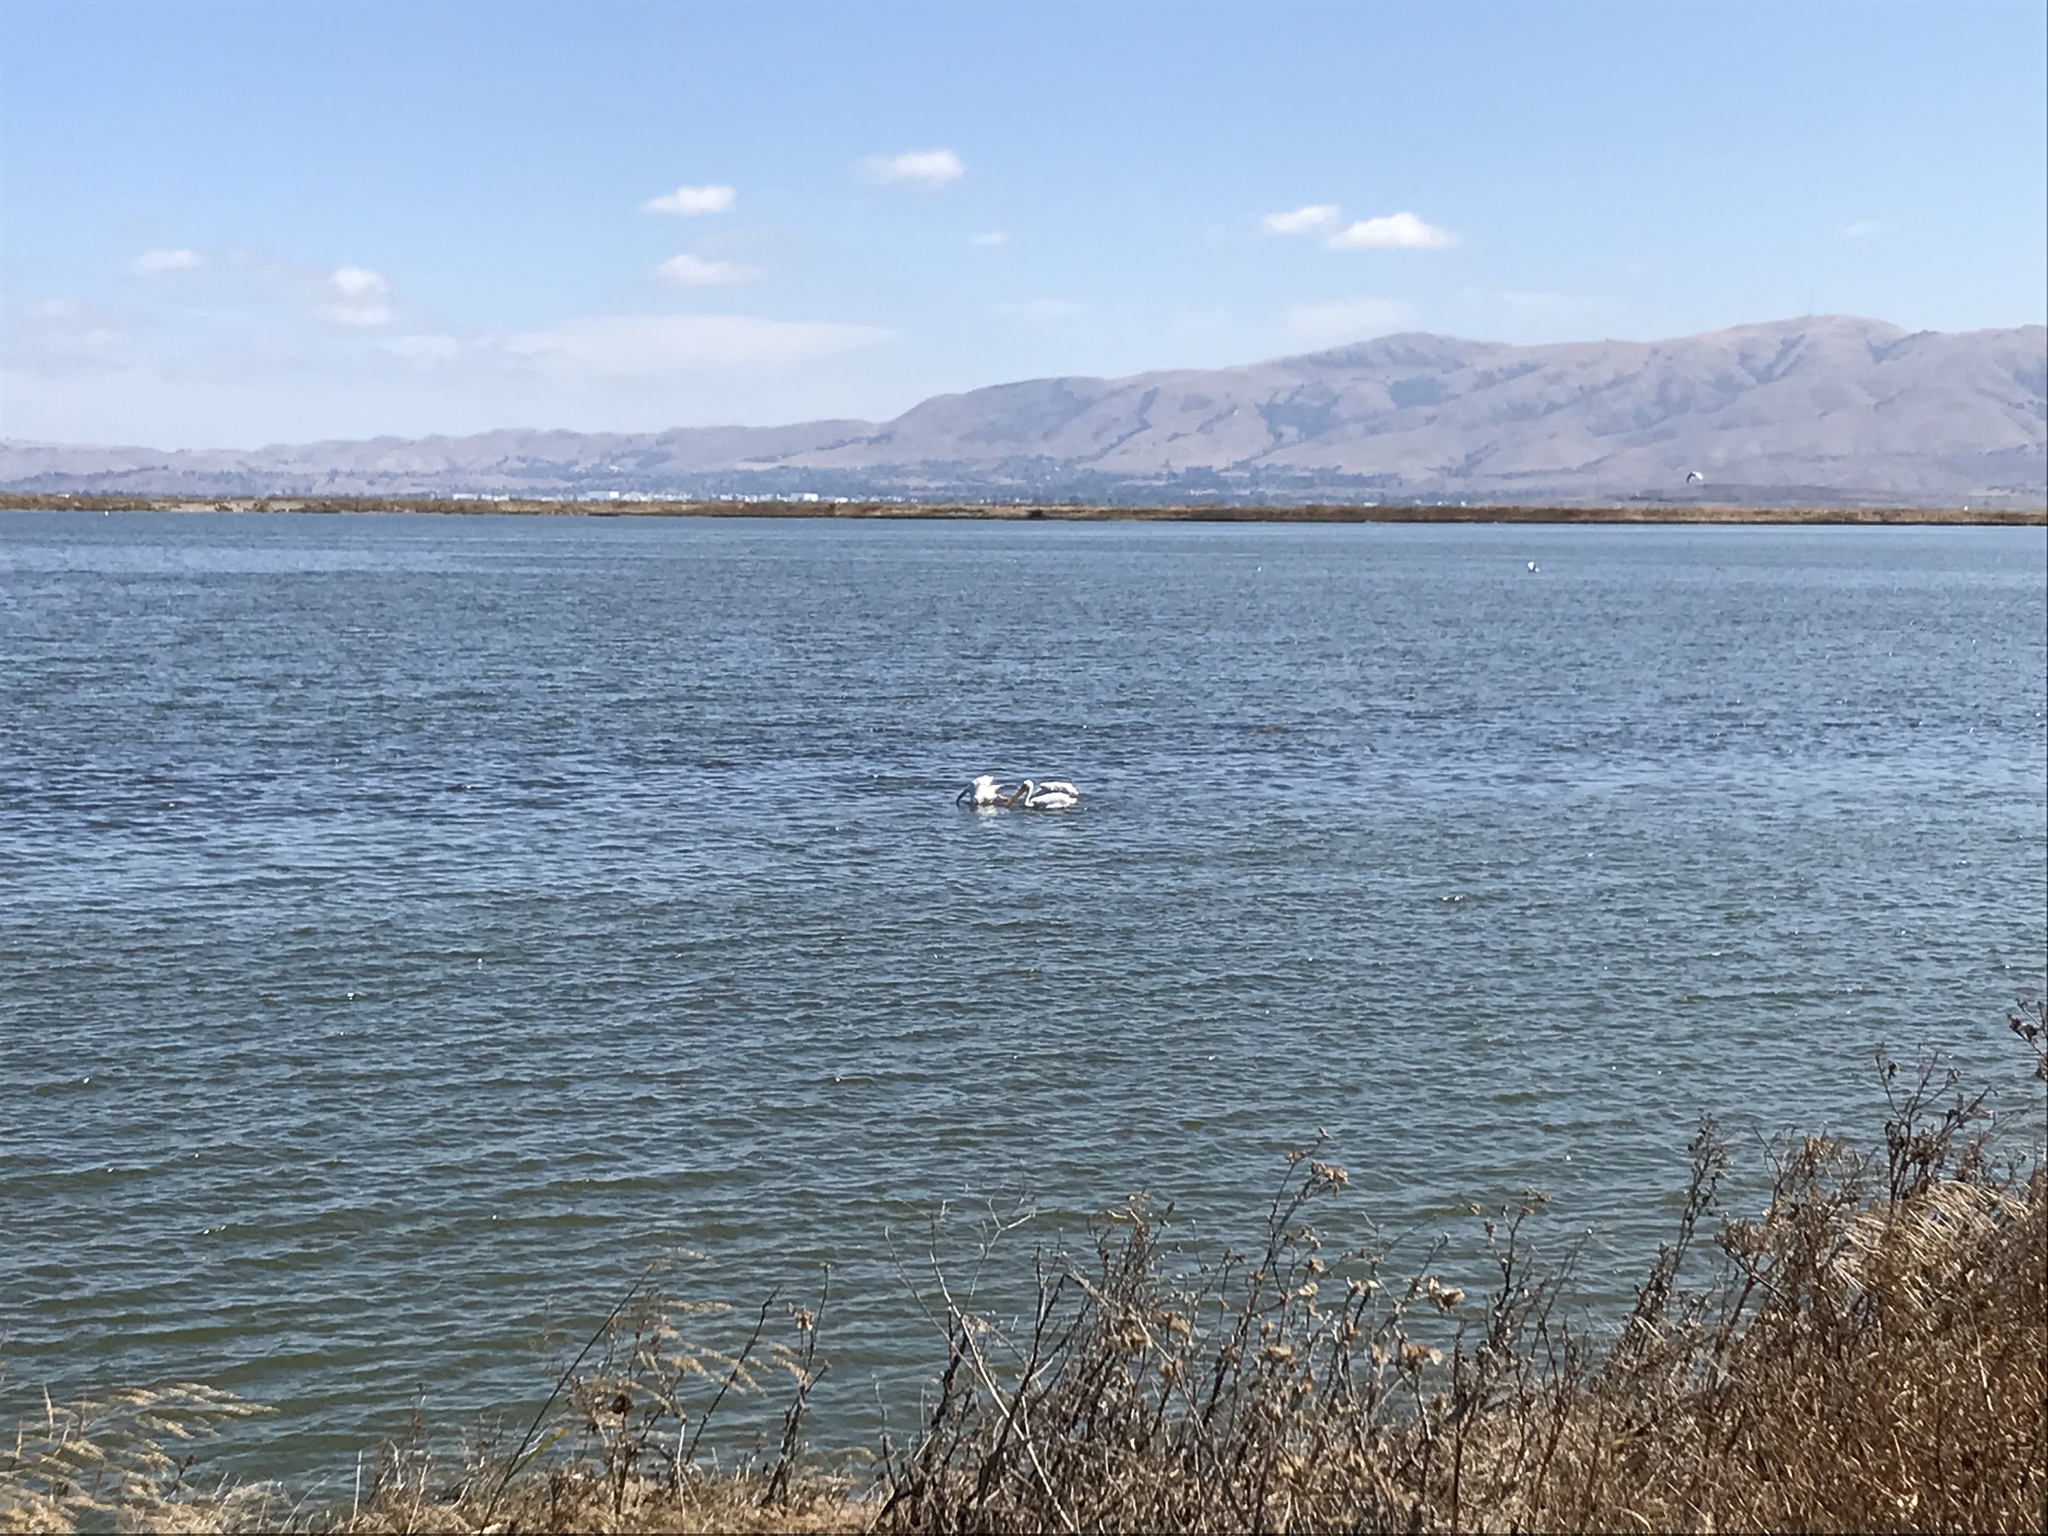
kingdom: Animalia
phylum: Chordata
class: Aves
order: Pelecaniformes
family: Pelecanidae
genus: Pelecanus
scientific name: Pelecanus erythrorhynchos
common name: American white pelican
